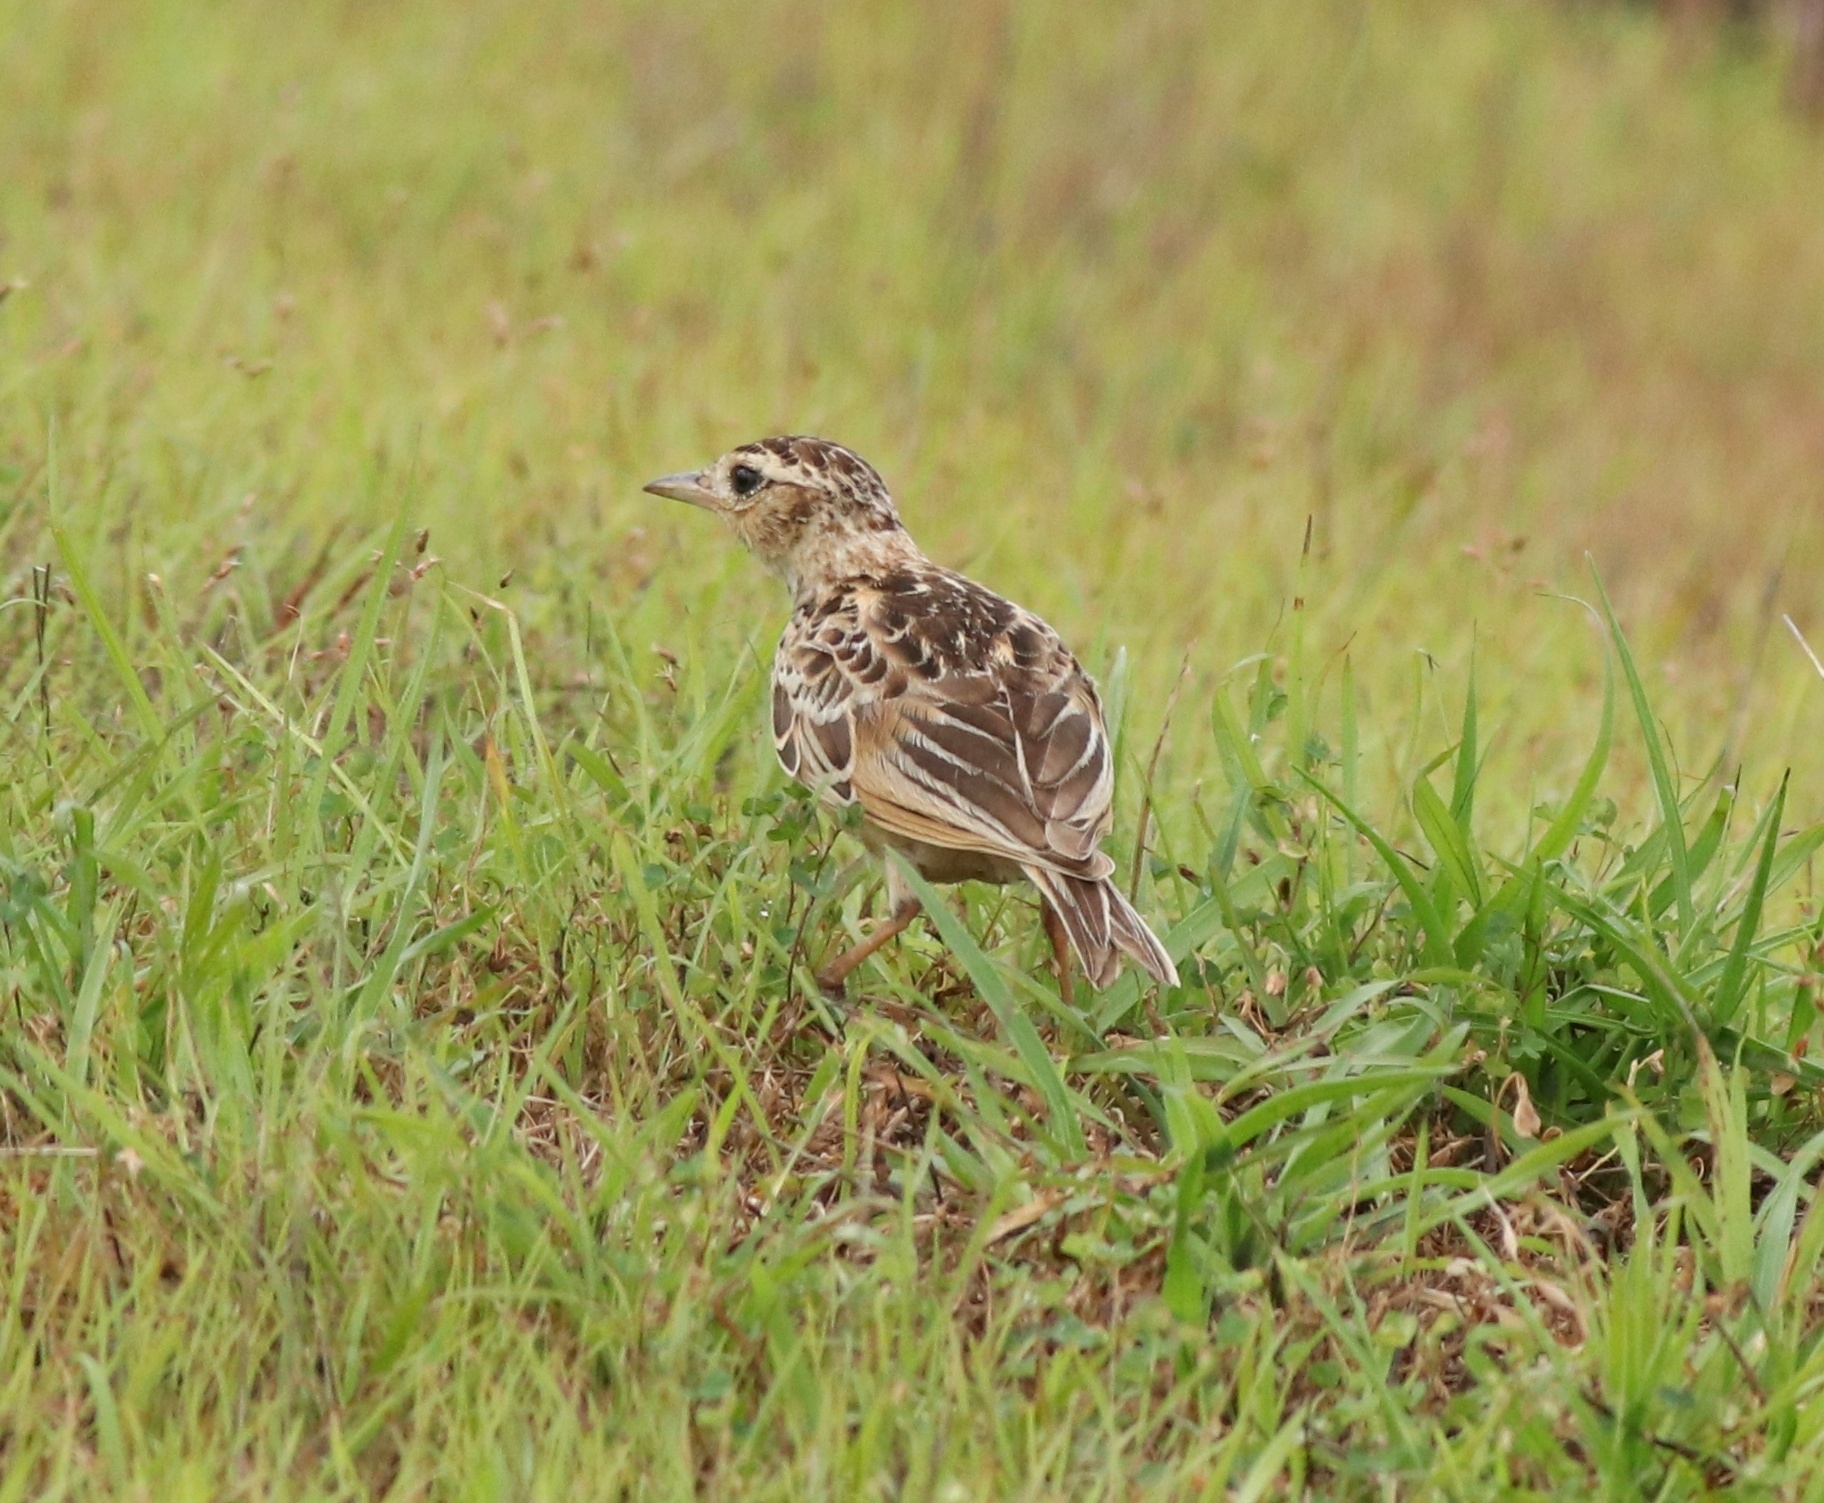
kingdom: Animalia
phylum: Chordata
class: Aves
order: Passeriformes
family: Alaudidae
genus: Alauda
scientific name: Alauda gulgula
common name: Oriental skylark
